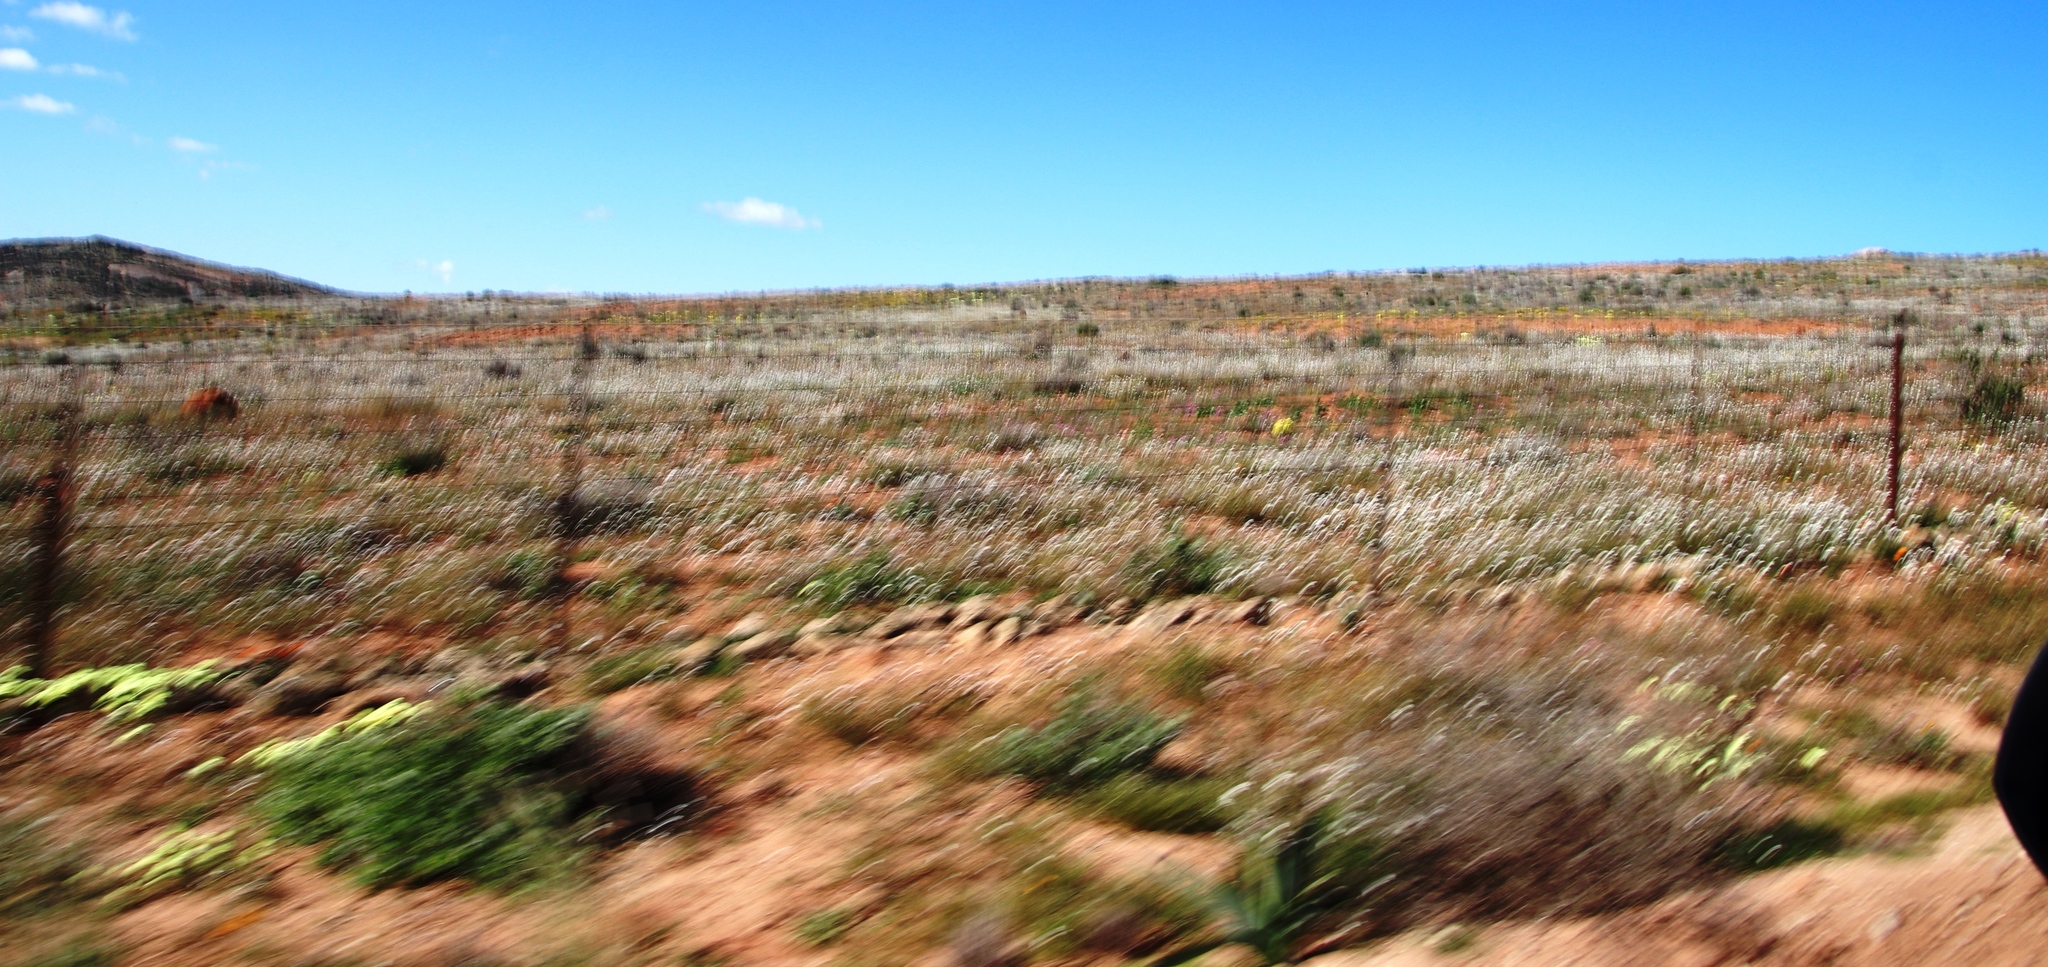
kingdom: Plantae
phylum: Tracheophyta
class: Magnoliopsida
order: Brassicales
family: Brassicaceae
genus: Heliophila
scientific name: Heliophila variabilis
